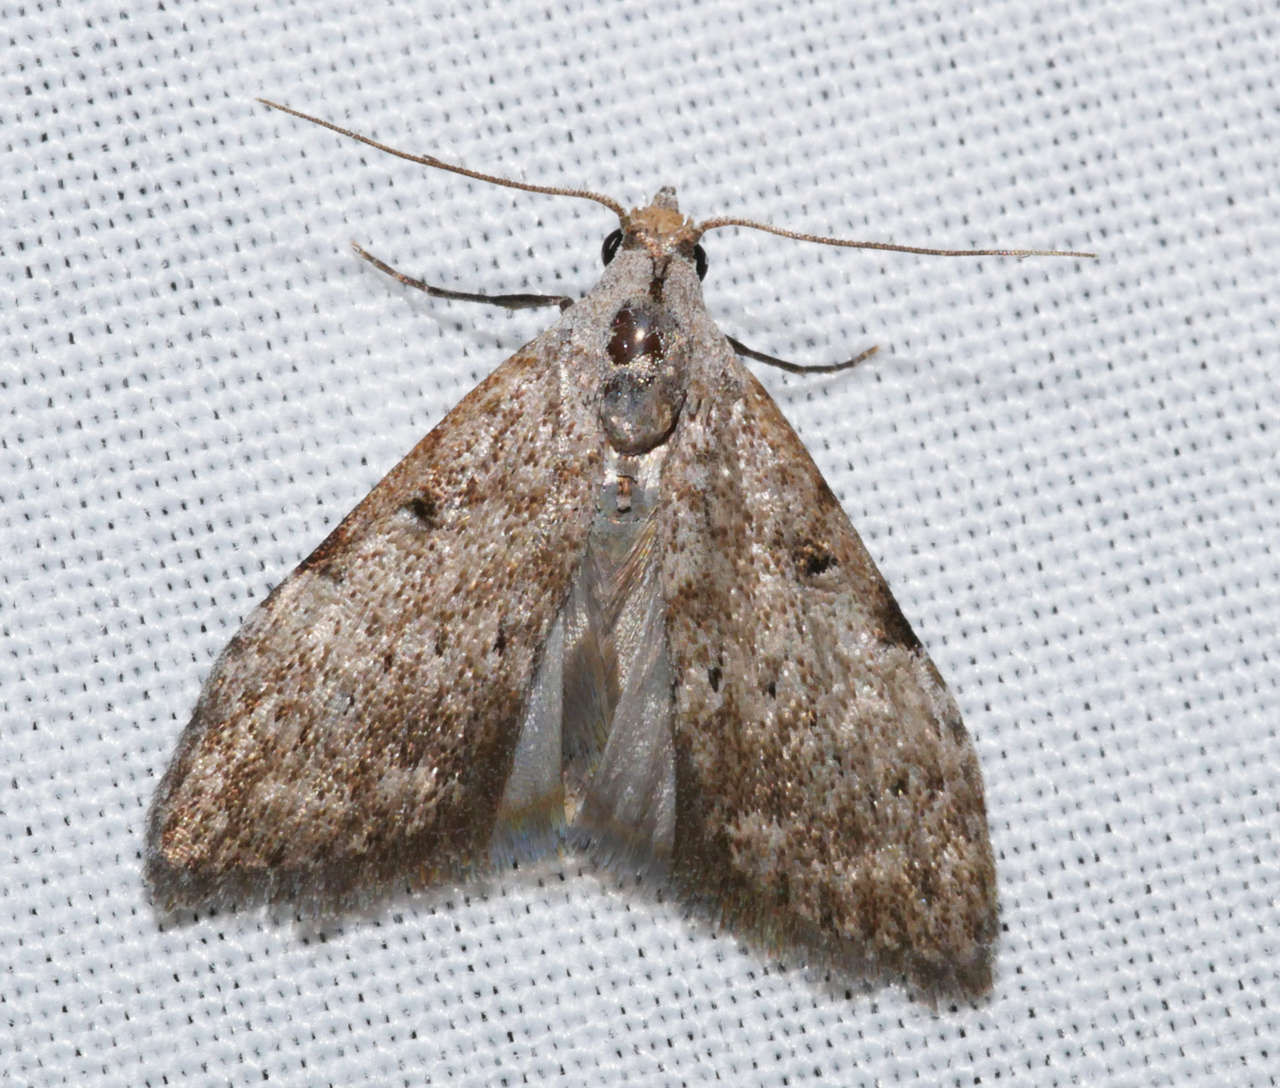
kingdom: Animalia
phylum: Arthropoda
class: Insecta
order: Lepidoptera
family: Nolidae
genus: Nola
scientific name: Nola pleurosema
